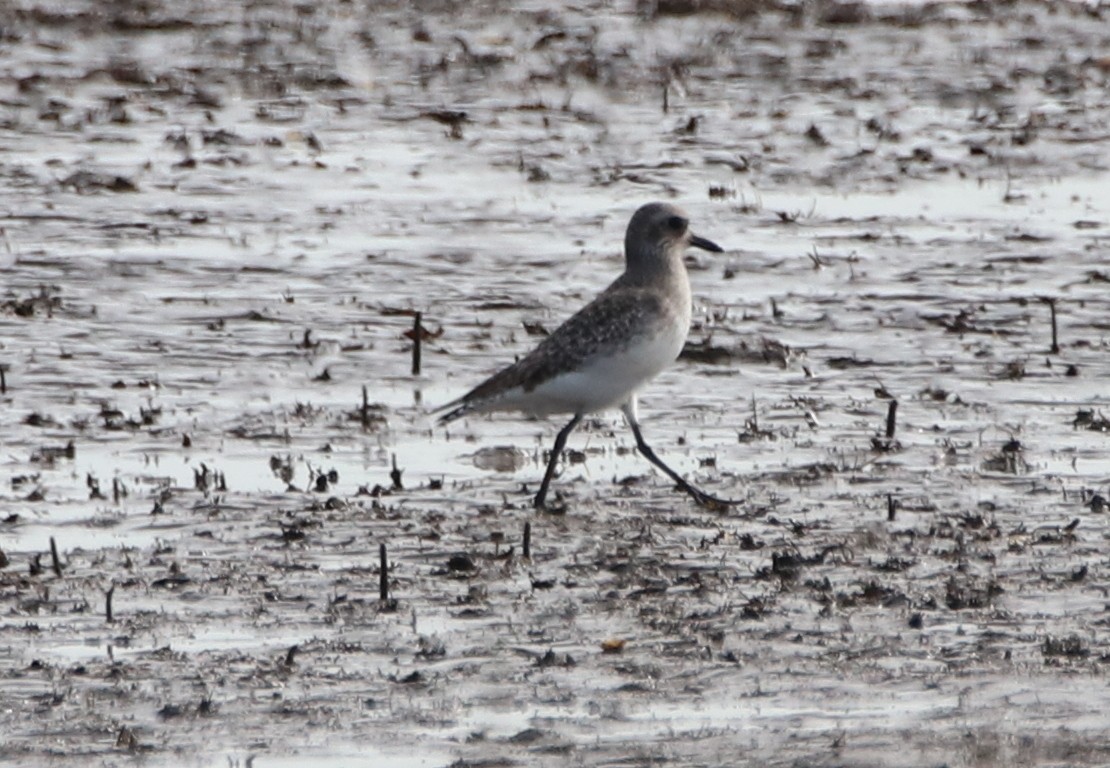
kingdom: Animalia
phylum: Chordata
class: Aves
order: Charadriiformes
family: Charadriidae
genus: Pluvialis
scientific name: Pluvialis squatarola
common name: Grey plover
